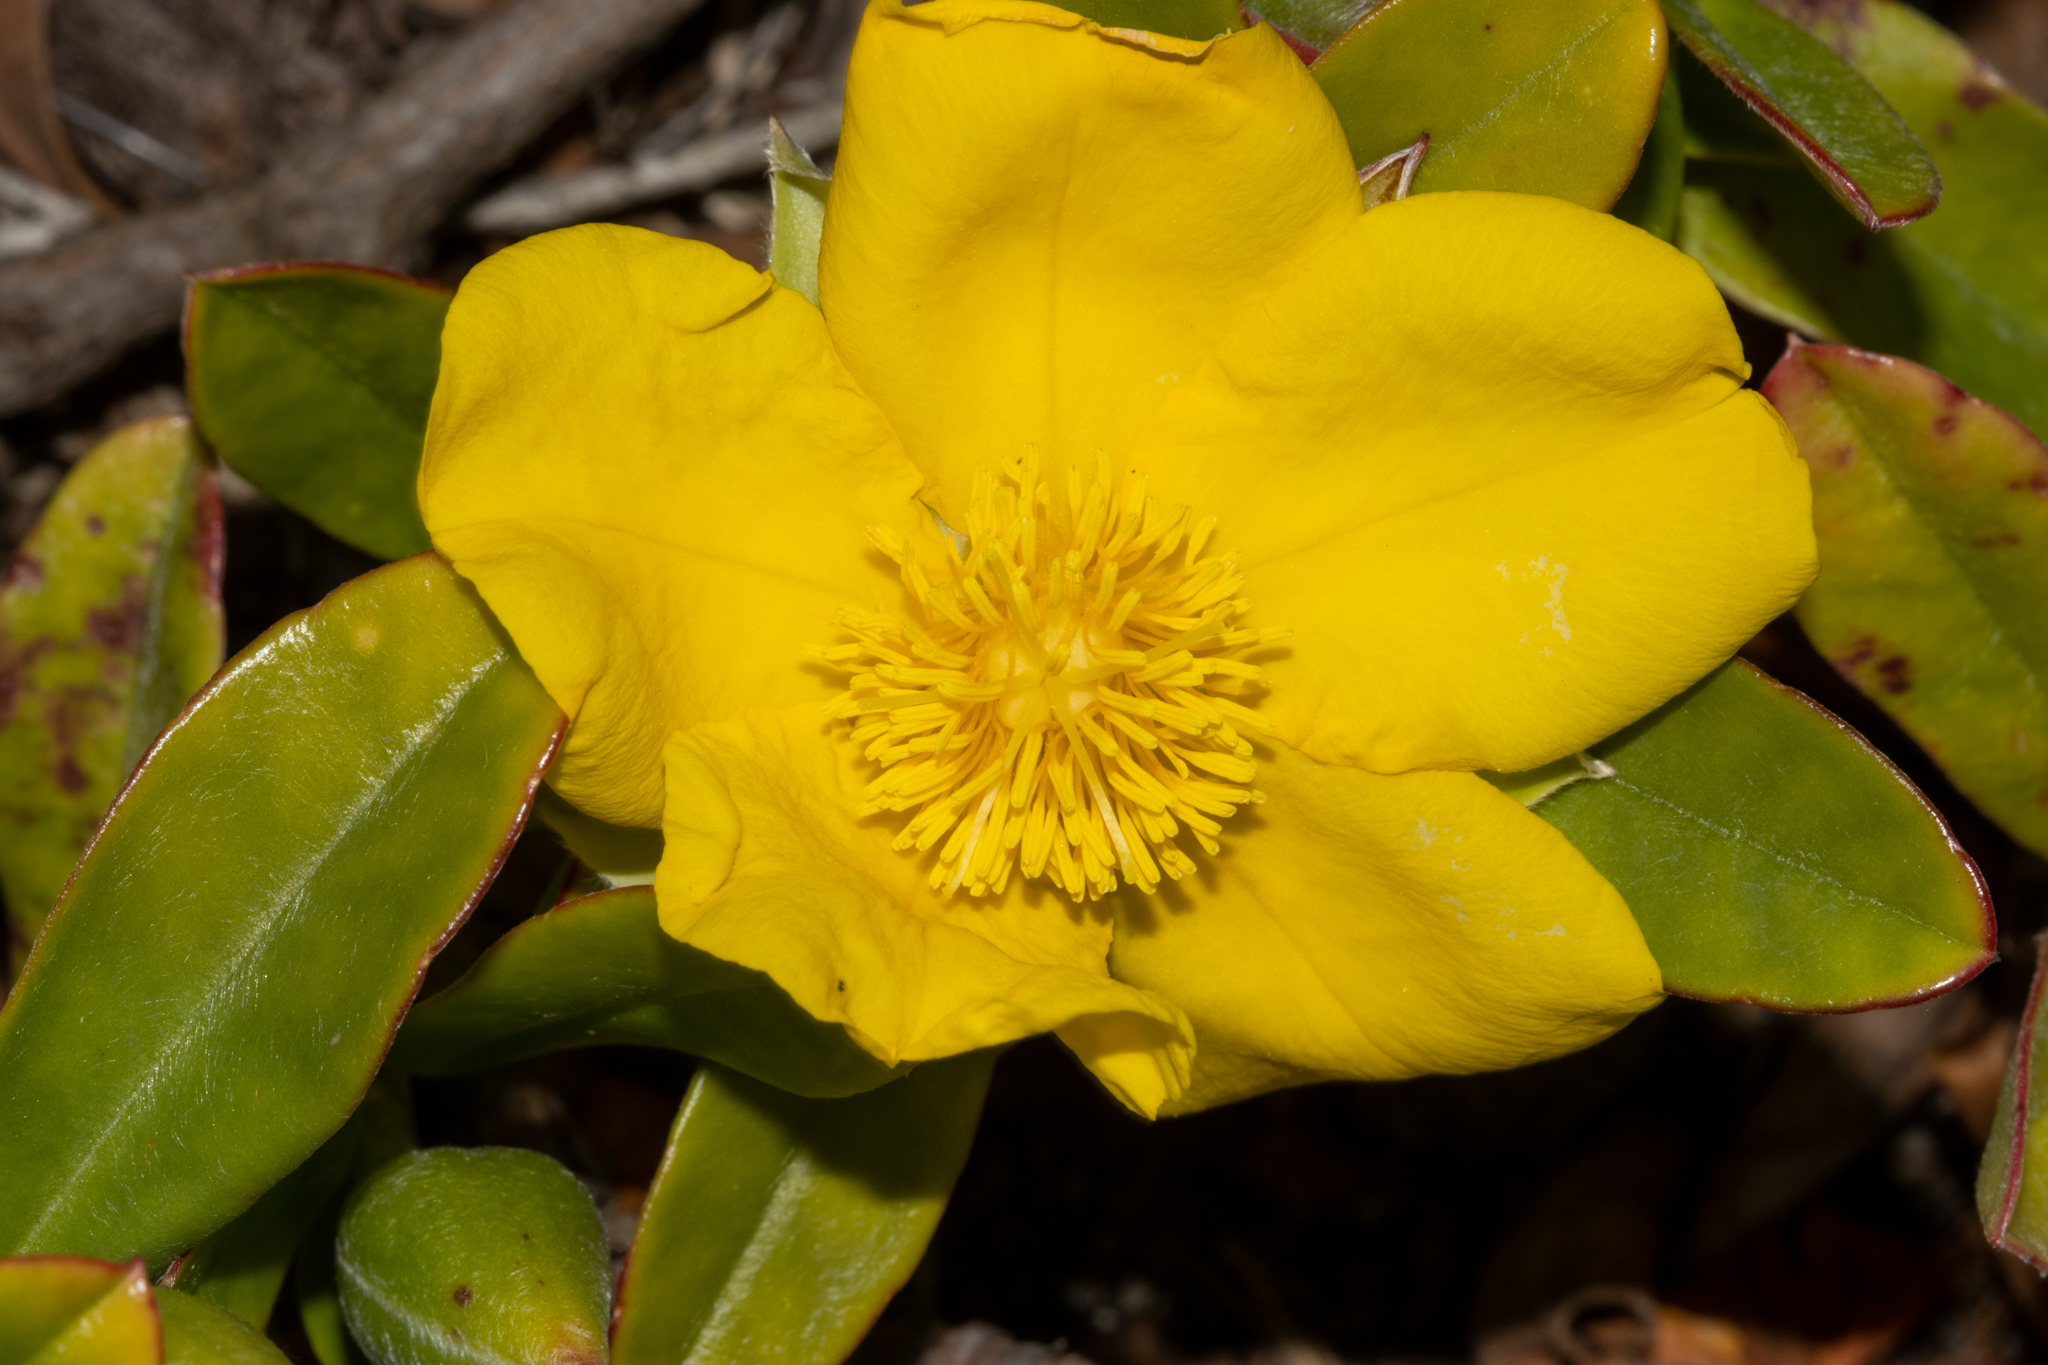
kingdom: Plantae
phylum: Tracheophyta
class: Magnoliopsida
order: Dilleniales
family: Dilleniaceae
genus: Hibbertia
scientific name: Hibbertia scandens
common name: Climbing guinea-flower
